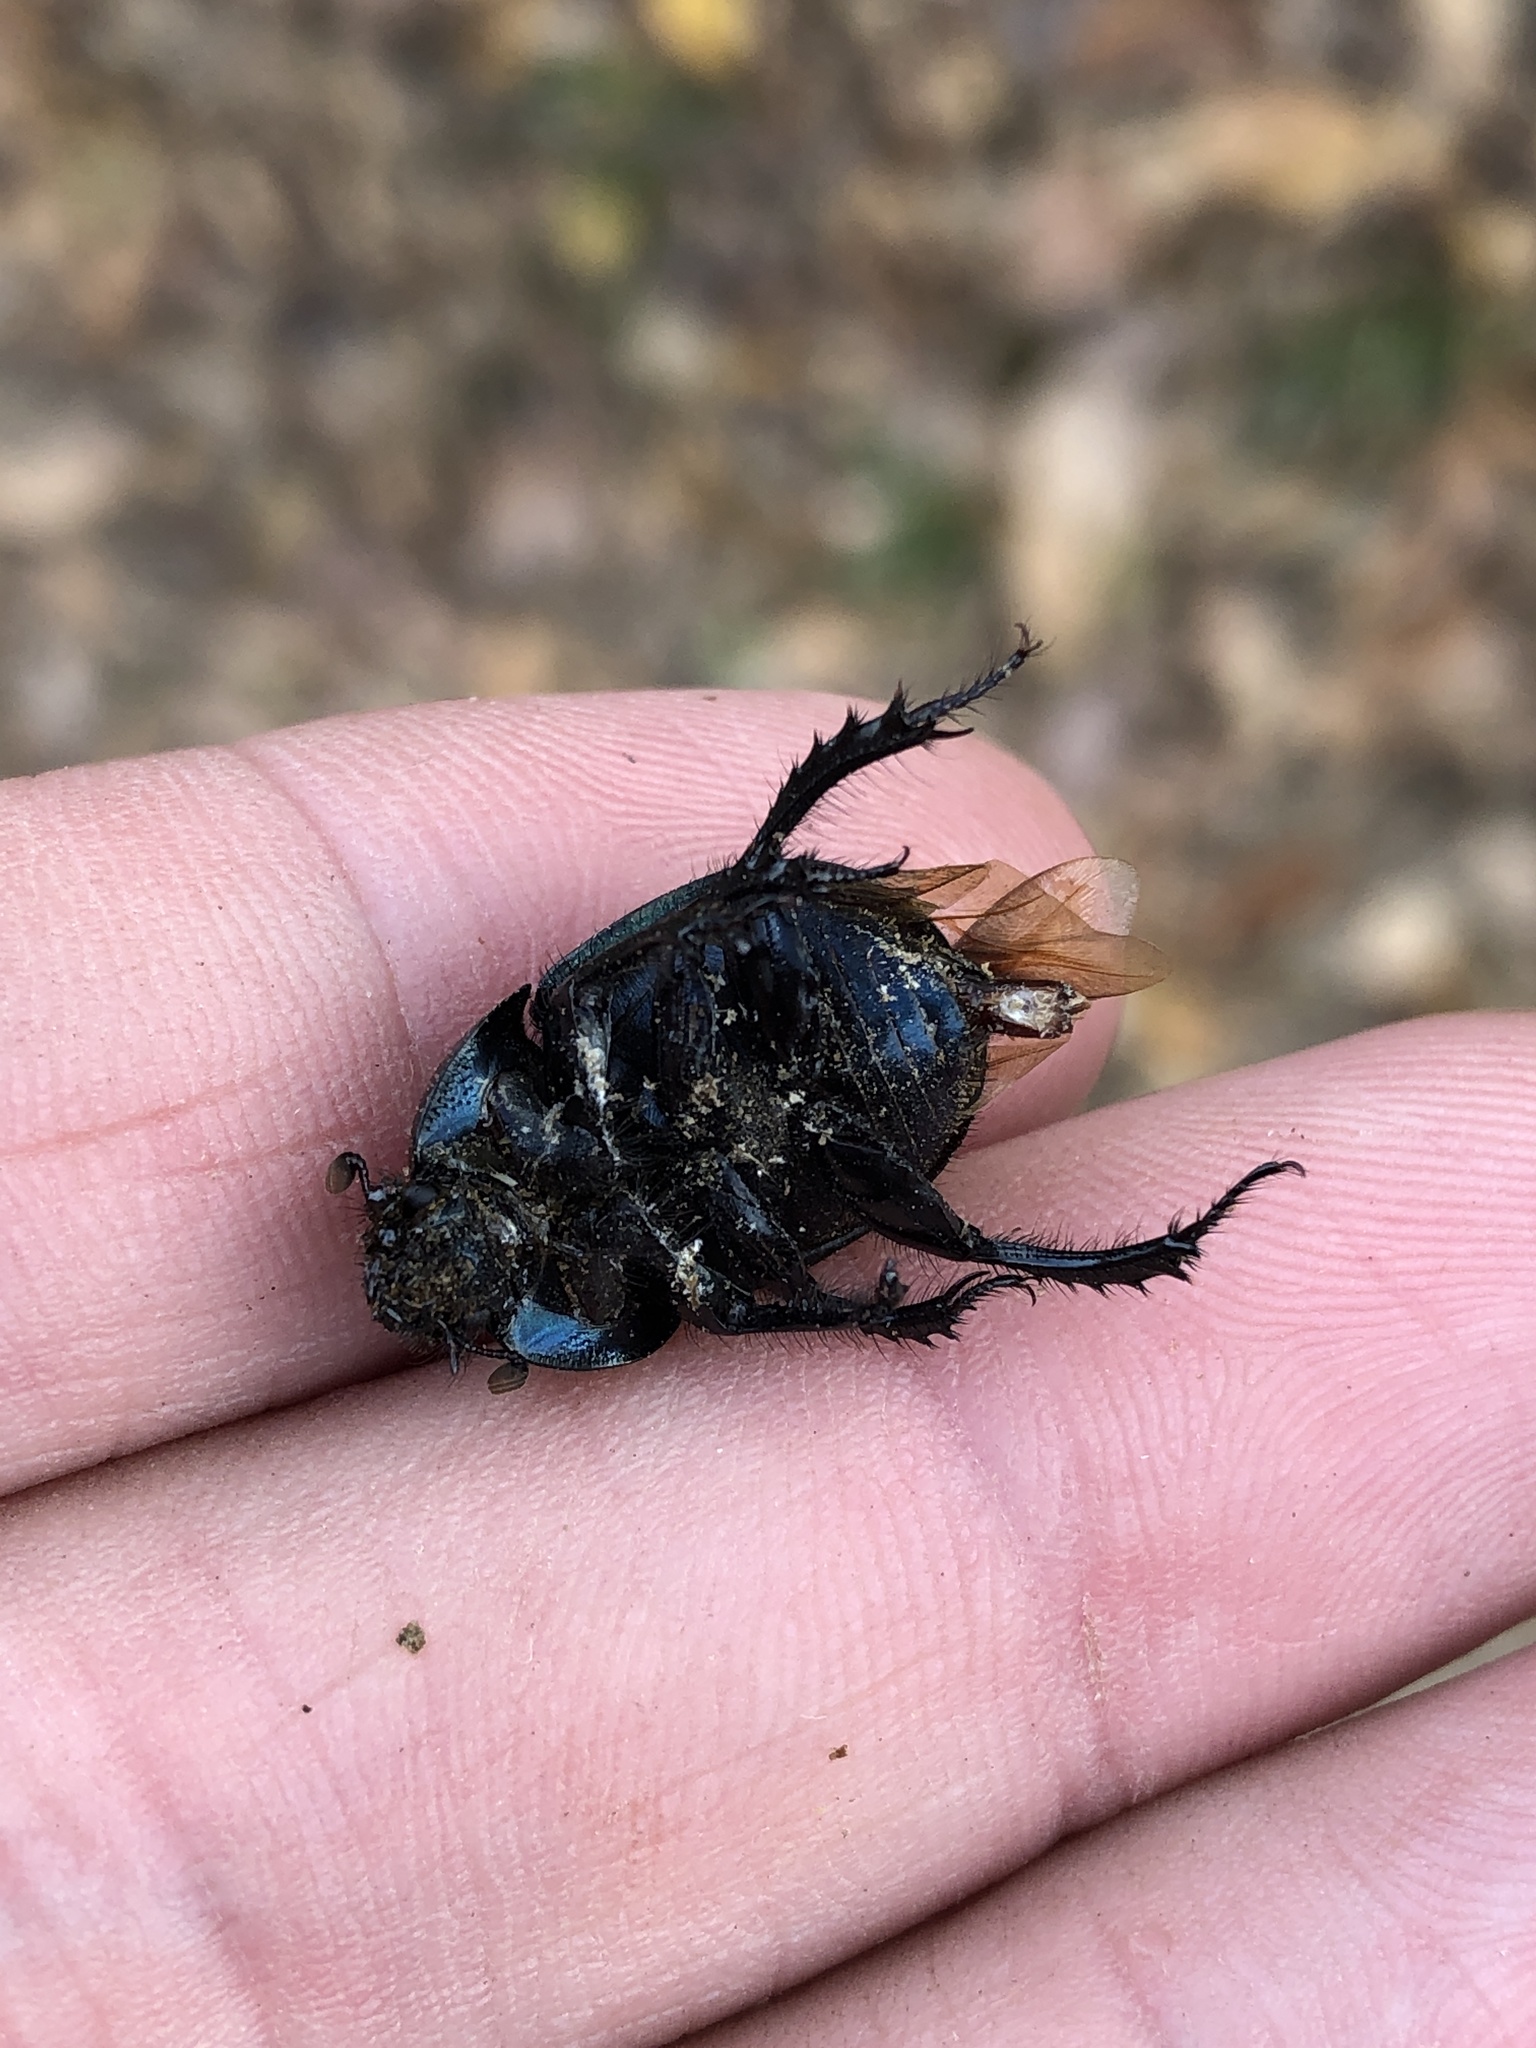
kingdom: Animalia
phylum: Arthropoda
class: Insecta
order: Coleoptera
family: Geotrupidae
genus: Cnemotrupes
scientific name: Cnemotrupes semiopacus
